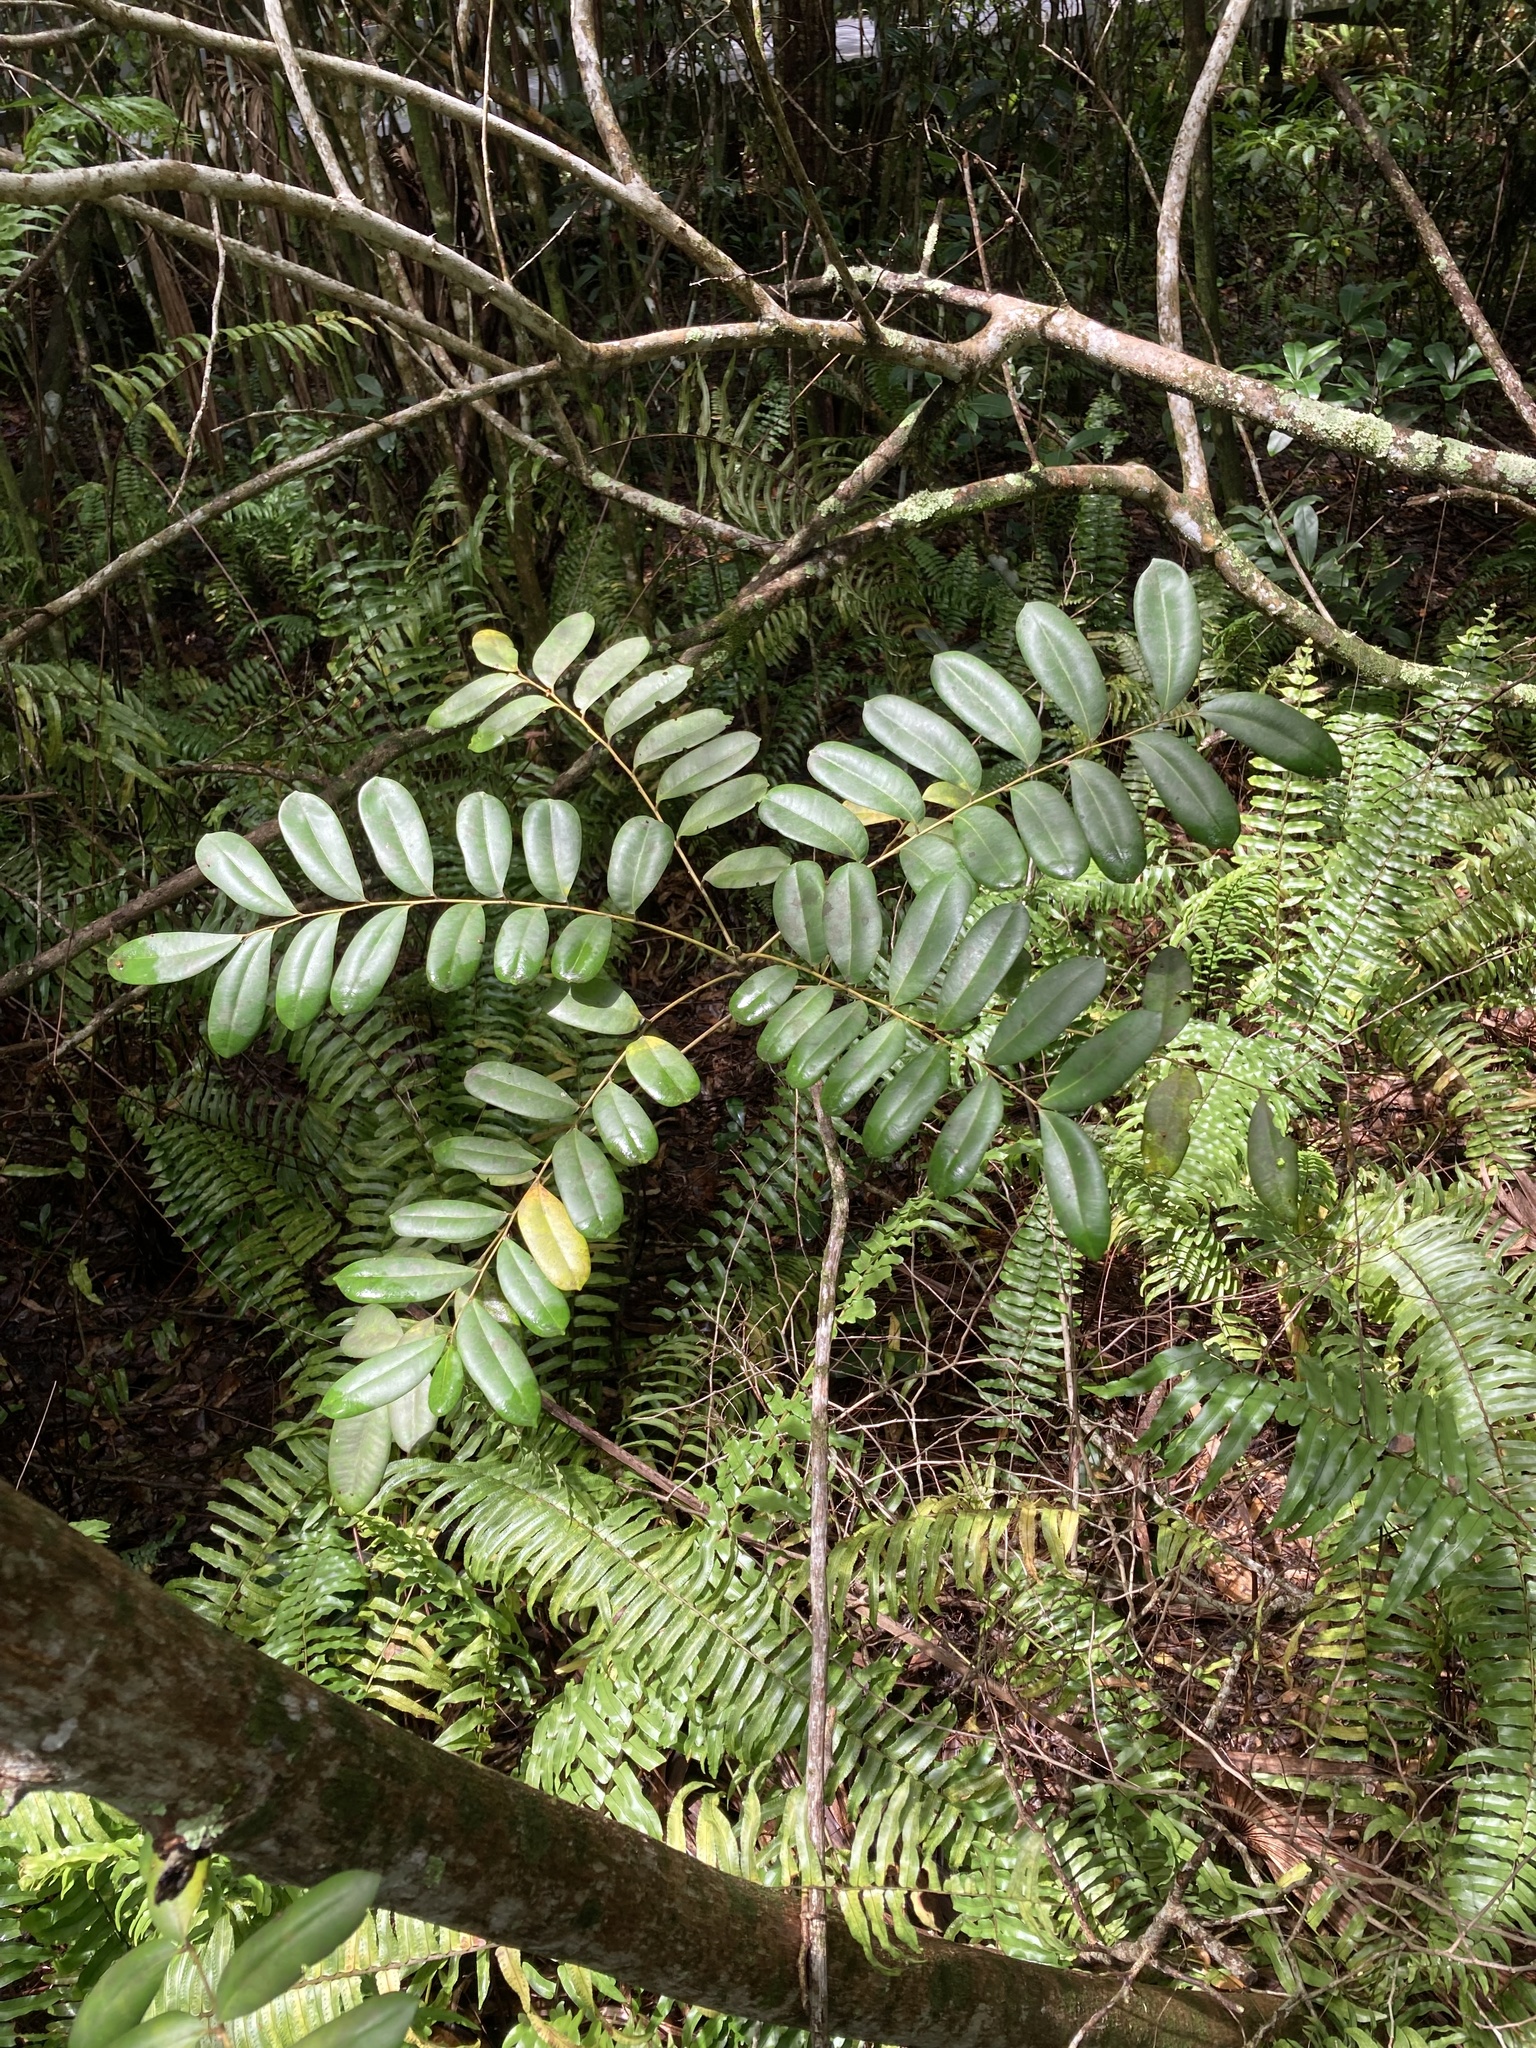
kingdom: Plantae
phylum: Tracheophyta
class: Magnoliopsida
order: Sapindales
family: Simaroubaceae
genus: Simarouba
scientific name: Simarouba glauca
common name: Dysentery-bark
